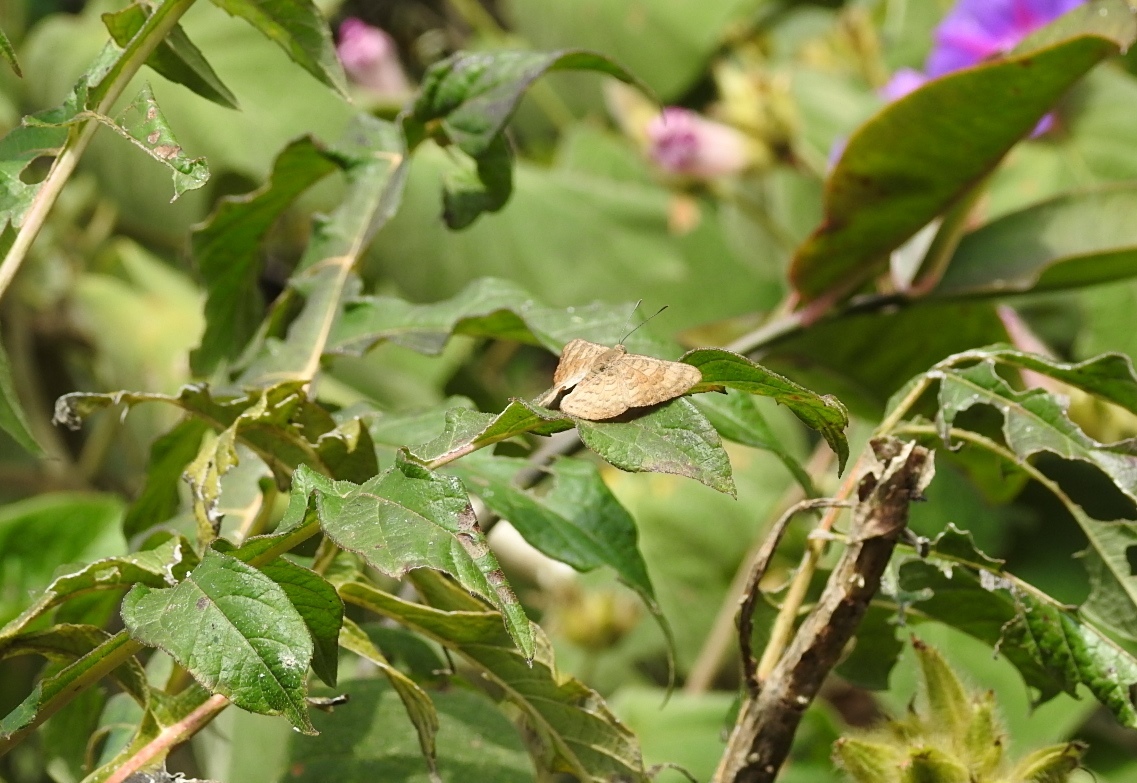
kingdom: Animalia
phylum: Arthropoda
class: Insecta
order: Lepidoptera
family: Lycaenidae
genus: Emesis
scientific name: Emesis tenedia
